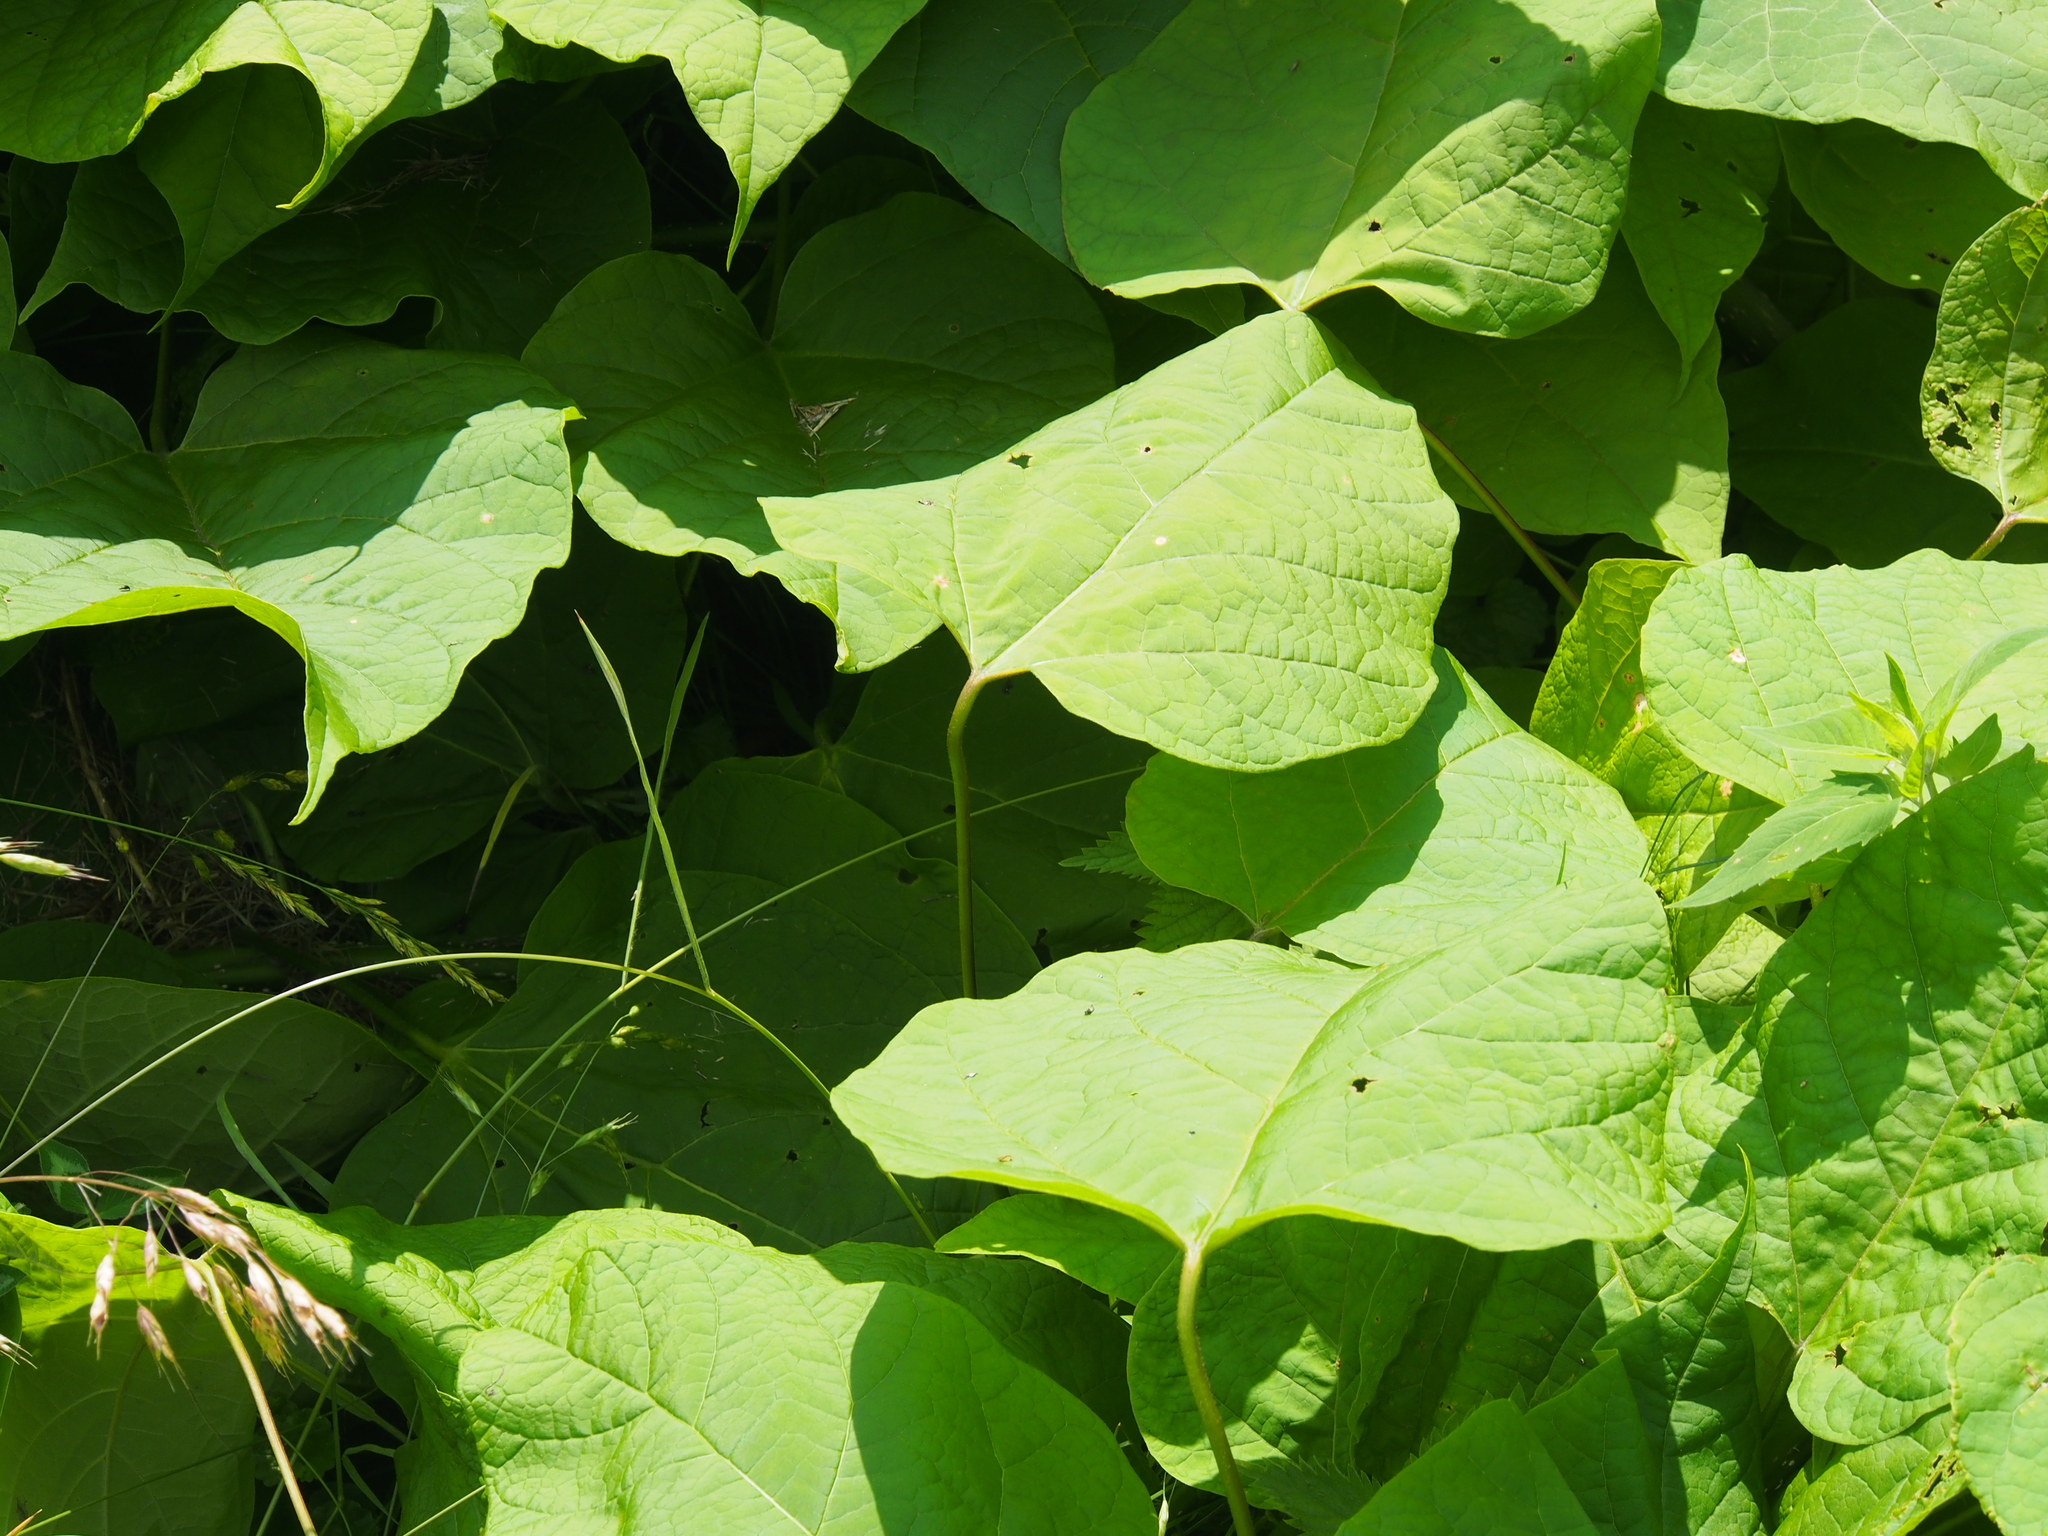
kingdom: Plantae
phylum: Tracheophyta
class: Magnoliopsida
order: Lamiales
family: Bignoniaceae
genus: Catalpa
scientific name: Catalpa bignonioides
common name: Southern catalpa
